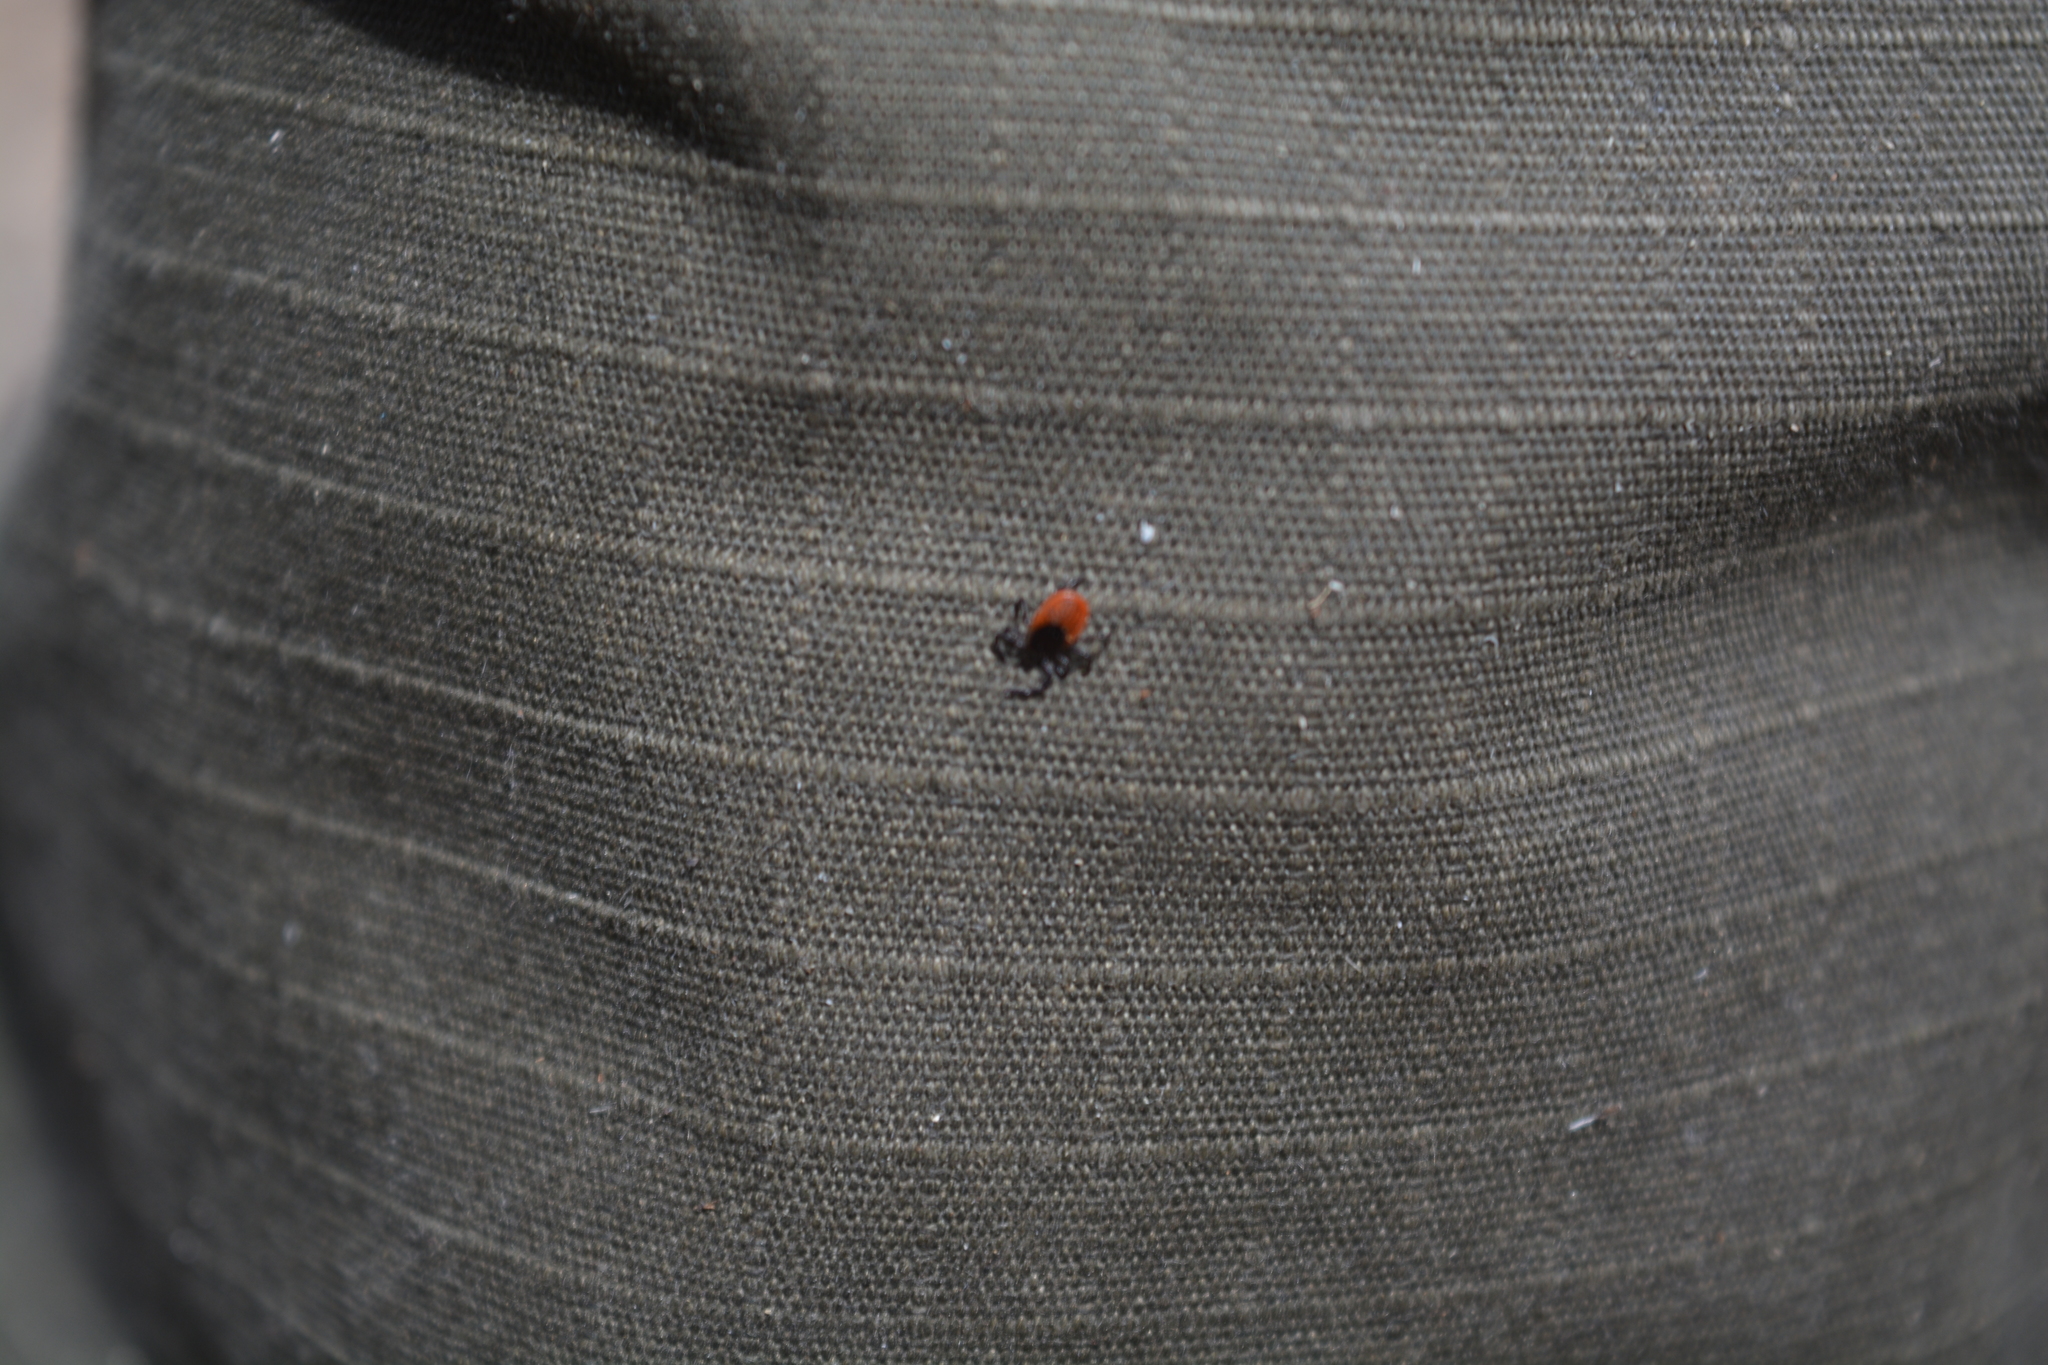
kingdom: Animalia
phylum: Arthropoda
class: Arachnida
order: Ixodida
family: Ixodidae
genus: Ixodes
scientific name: Ixodes persulcatus
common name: Taiga tick
